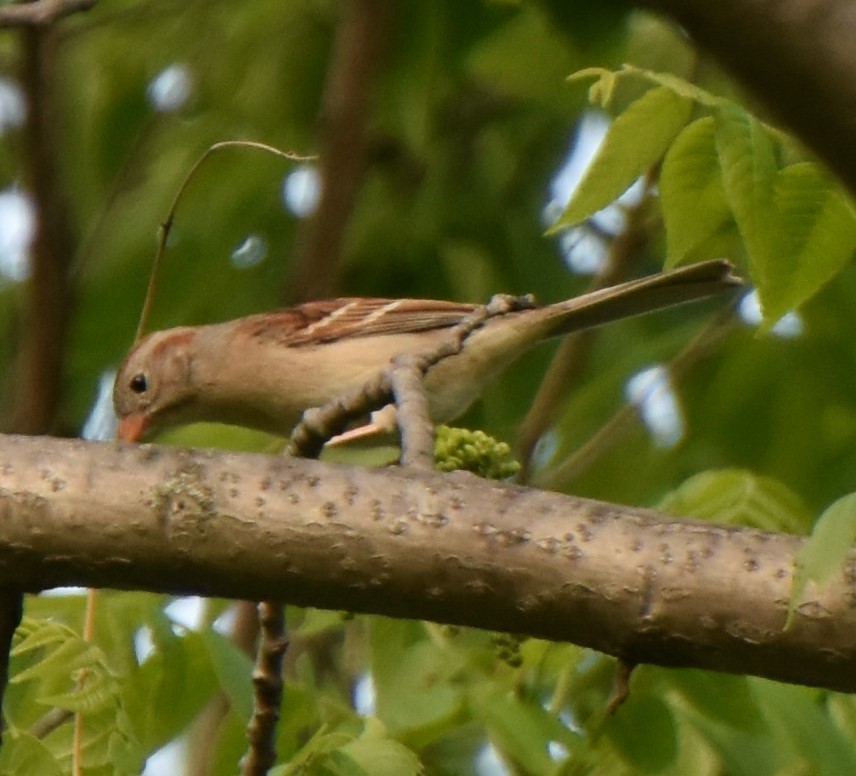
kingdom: Animalia
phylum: Chordata
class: Aves
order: Passeriformes
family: Passerellidae
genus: Spizella
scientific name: Spizella pusilla
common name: Field sparrow
